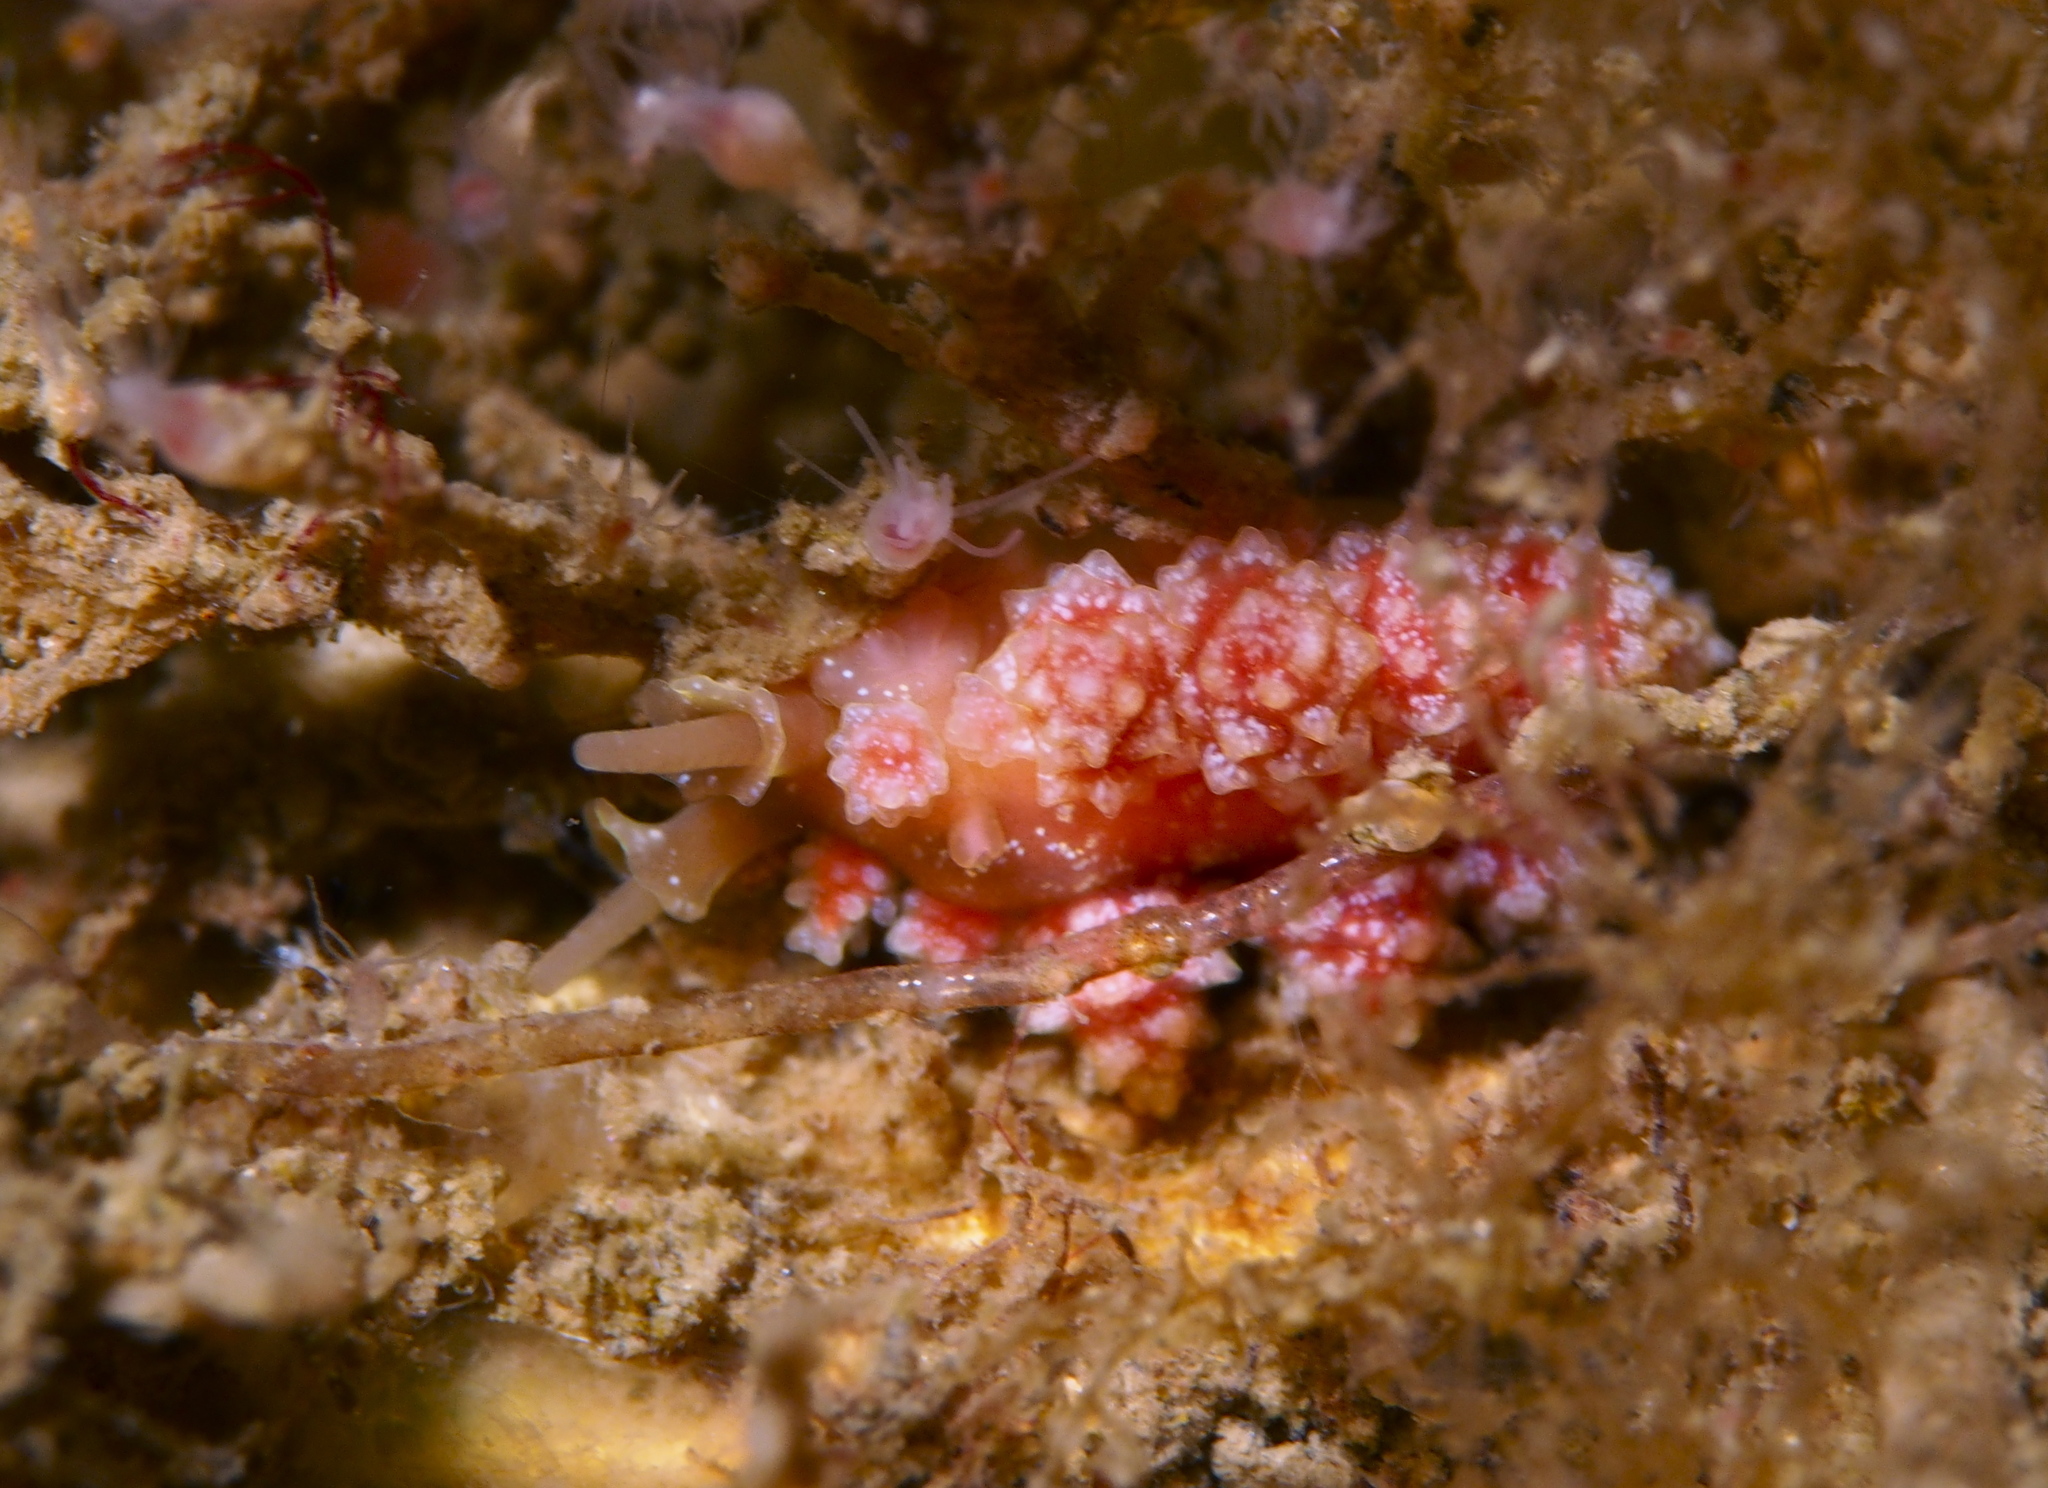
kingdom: Animalia
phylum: Mollusca
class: Gastropoda
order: Nudibranchia
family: Dotidae
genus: Doto
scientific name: Doto fragilis
